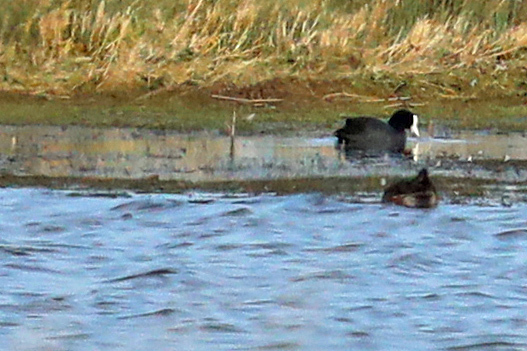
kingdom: Animalia
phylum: Chordata
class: Aves
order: Gruiformes
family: Rallidae
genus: Fulica
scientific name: Fulica atra
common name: Eurasian coot
